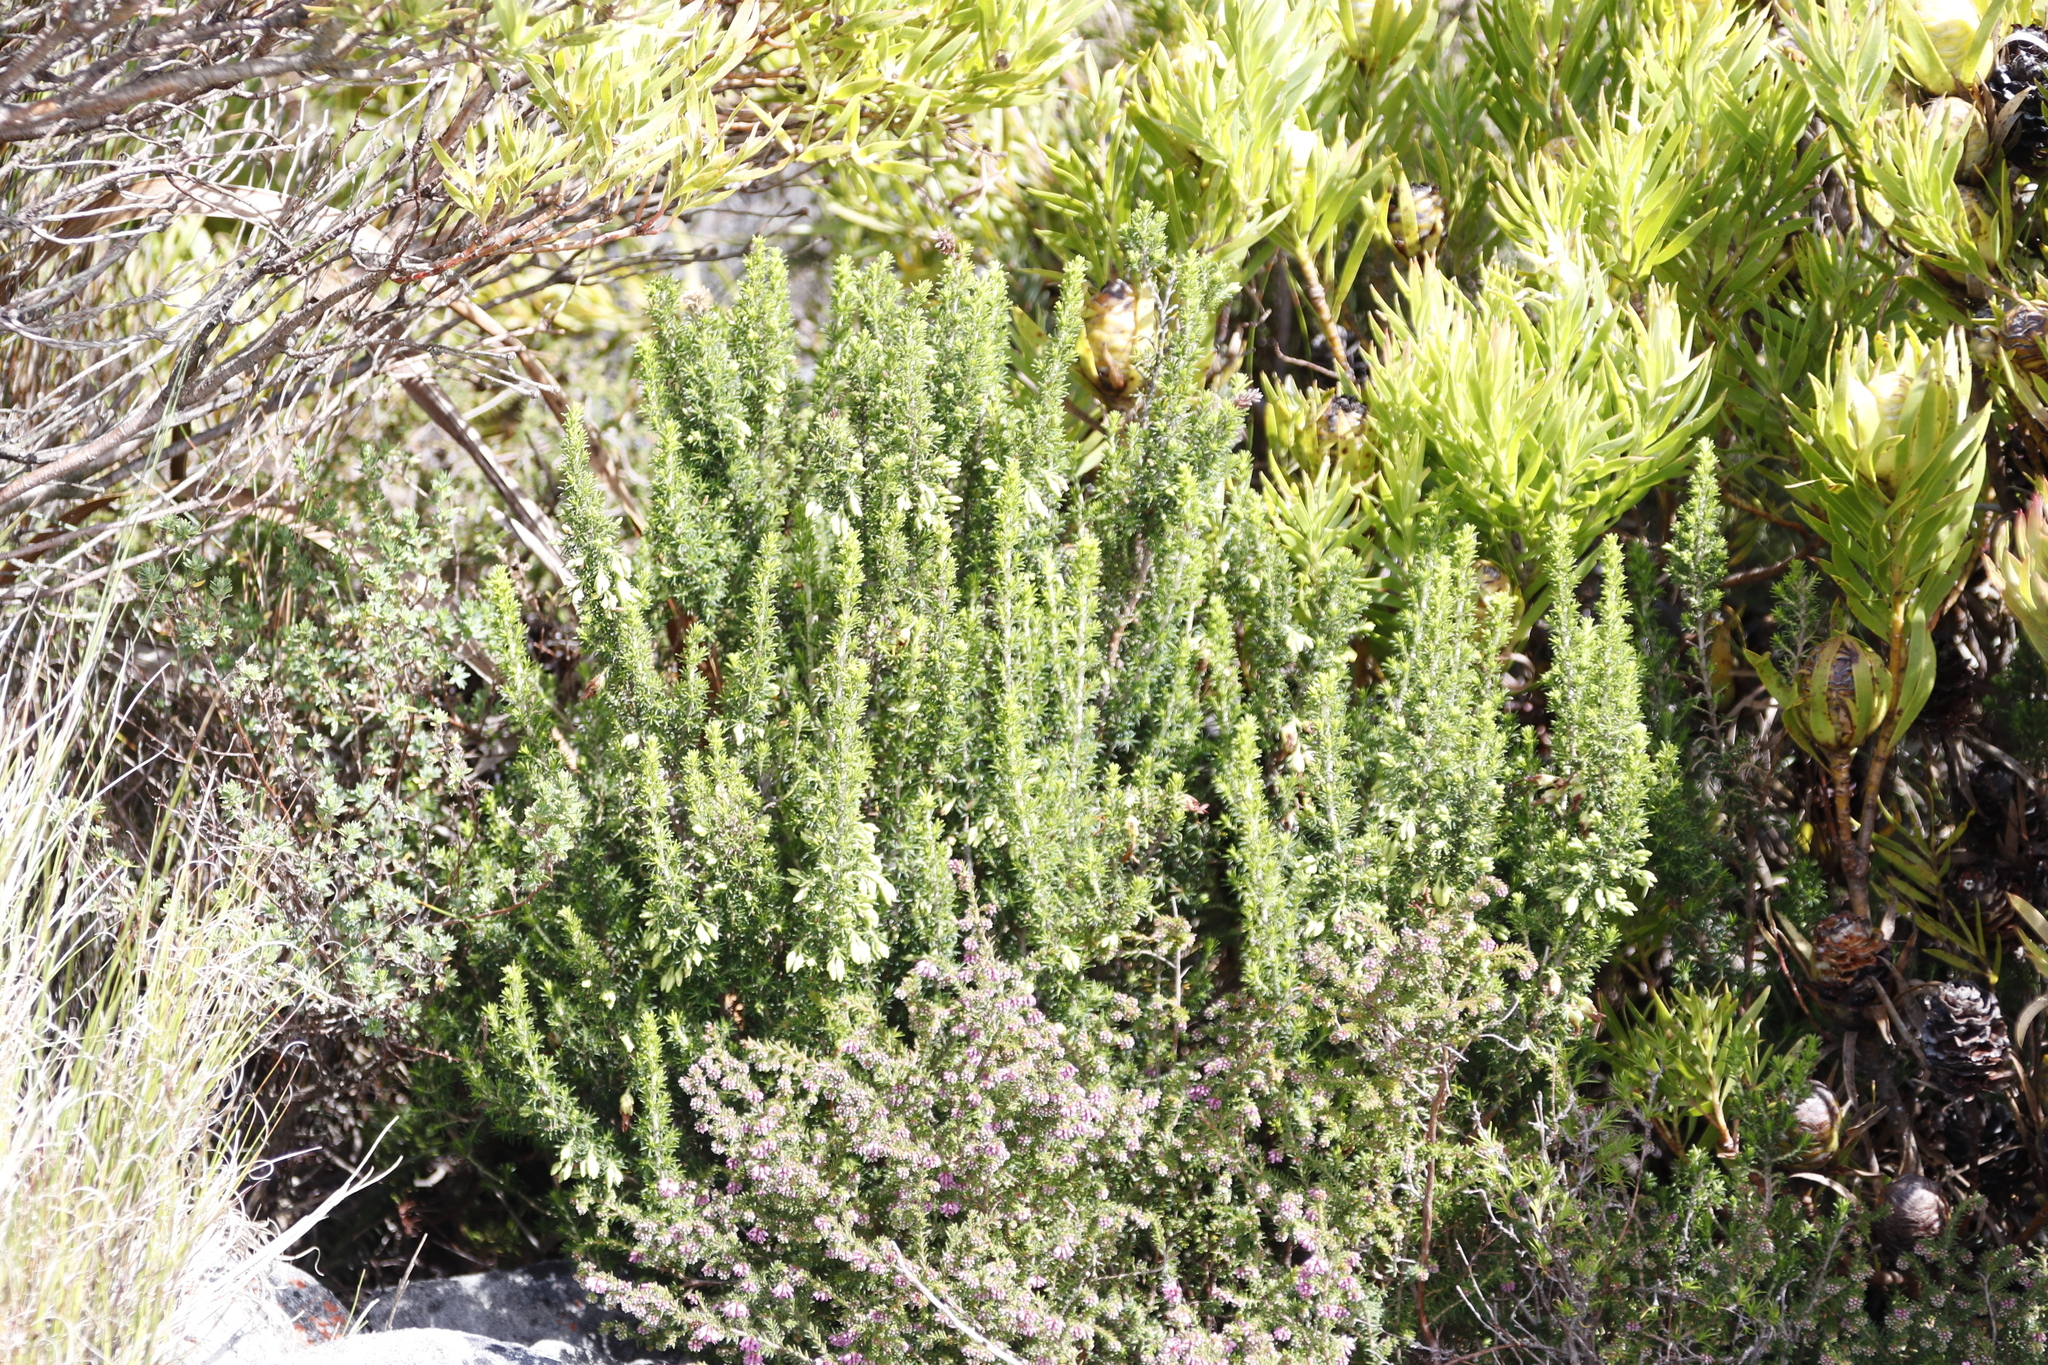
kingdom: Plantae
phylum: Tracheophyta
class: Magnoliopsida
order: Ericales
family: Ericaceae
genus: Erica
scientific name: Erica coccinea
